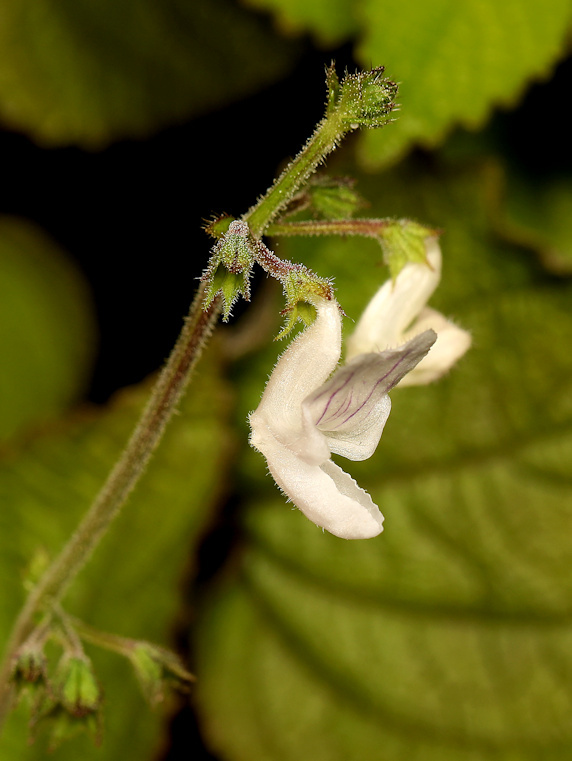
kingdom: Plantae
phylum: Tracheophyta
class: Magnoliopsida
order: Lamiales
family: Lamiaceae
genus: Equilabium
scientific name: Equilabium laxiflorum
